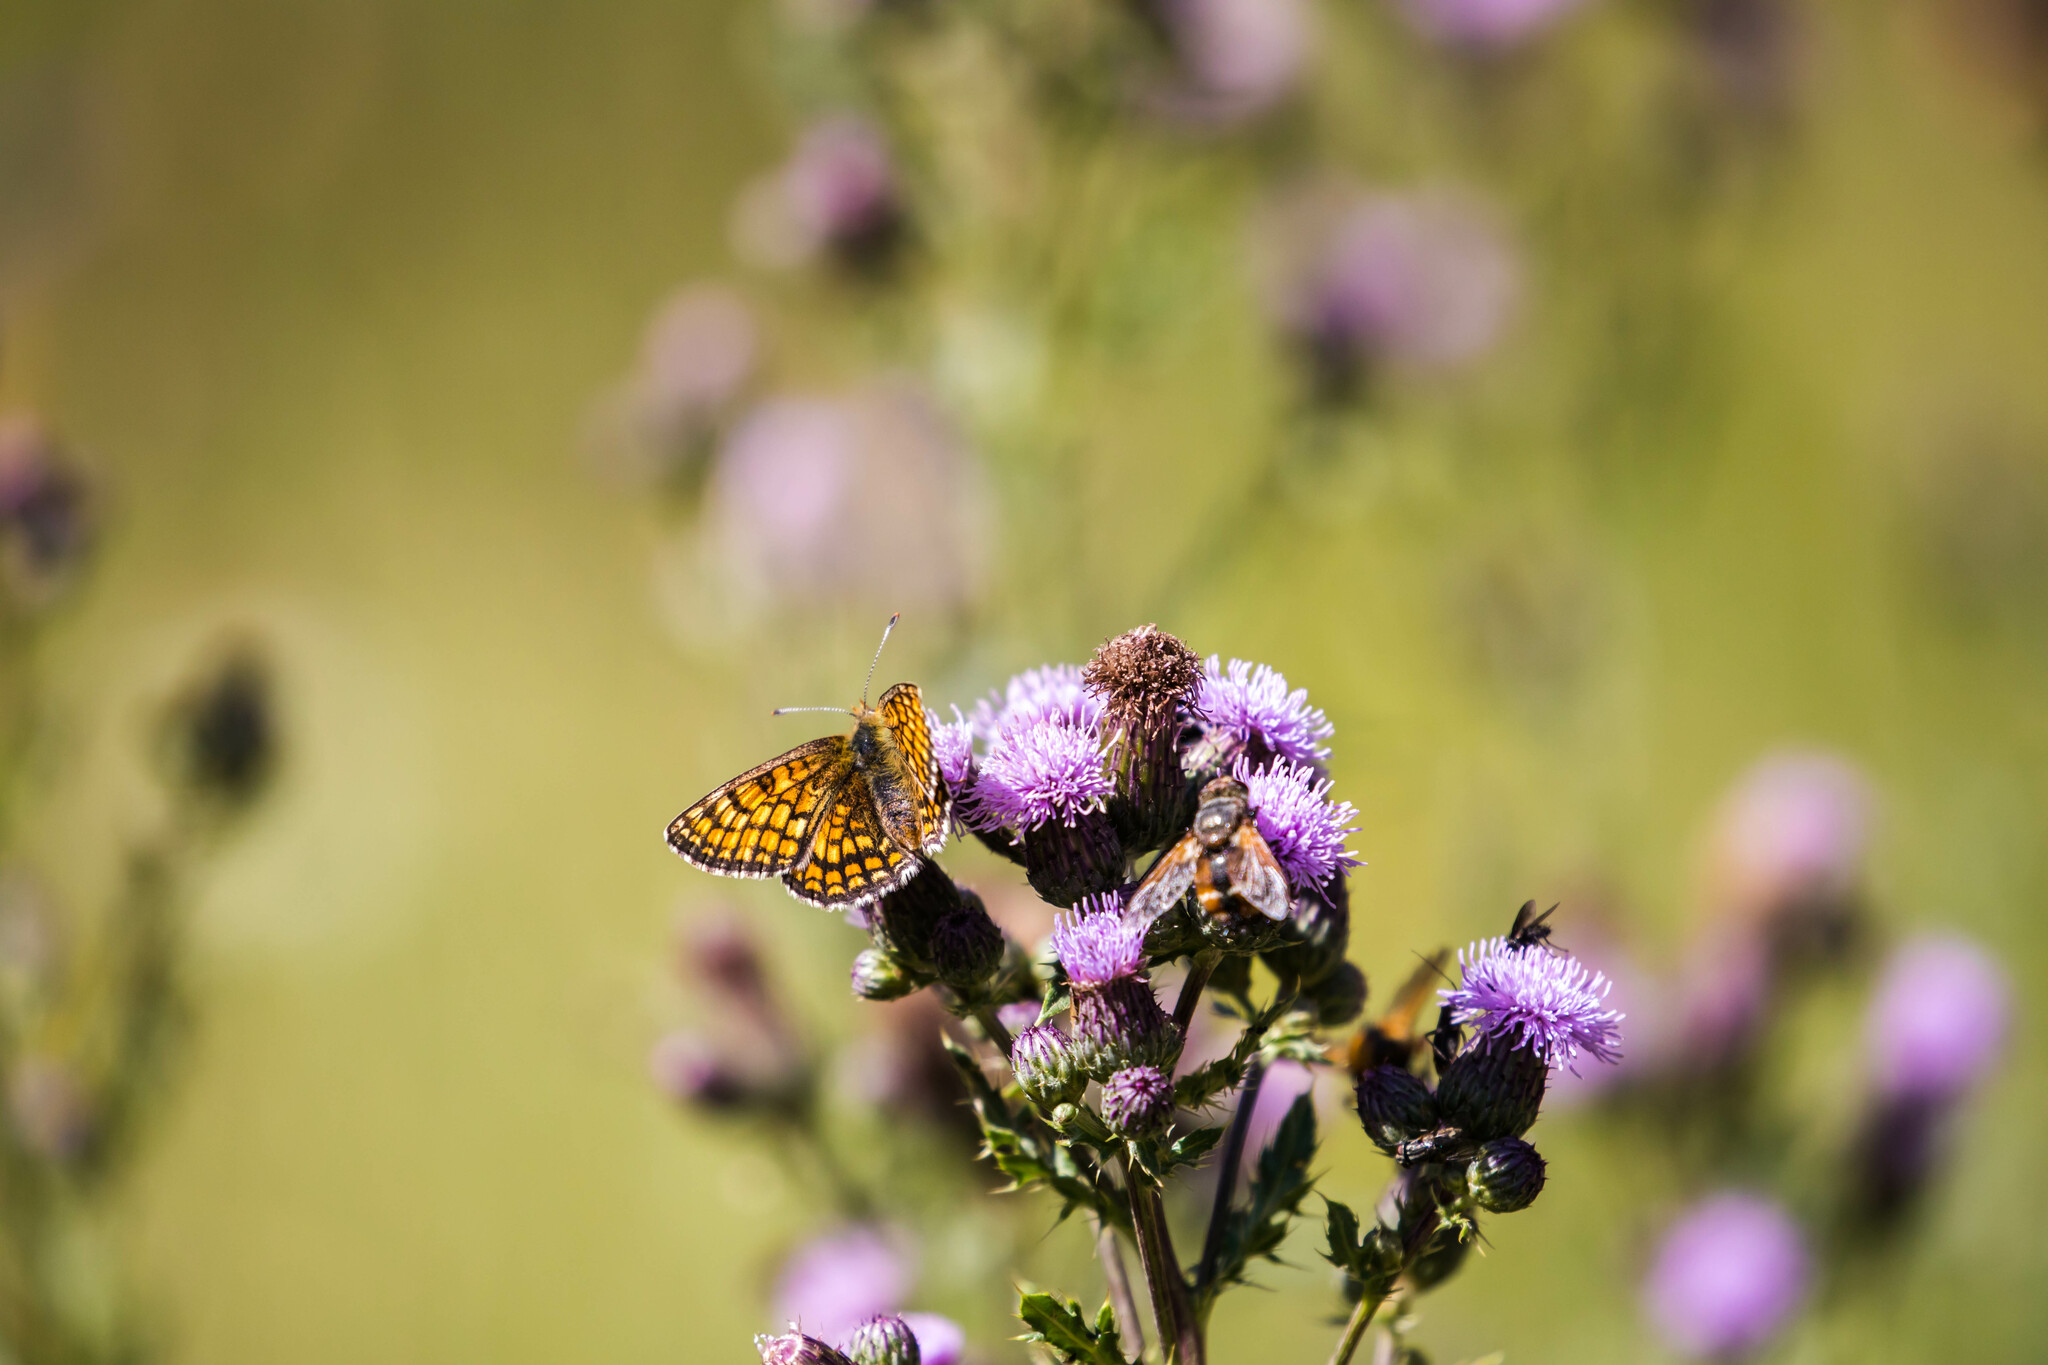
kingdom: Animalia
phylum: Arthropoda
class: Insecta
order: Lepidoptera
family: Nymphalidae
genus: Mellicta
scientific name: Mellicta parthenoides
